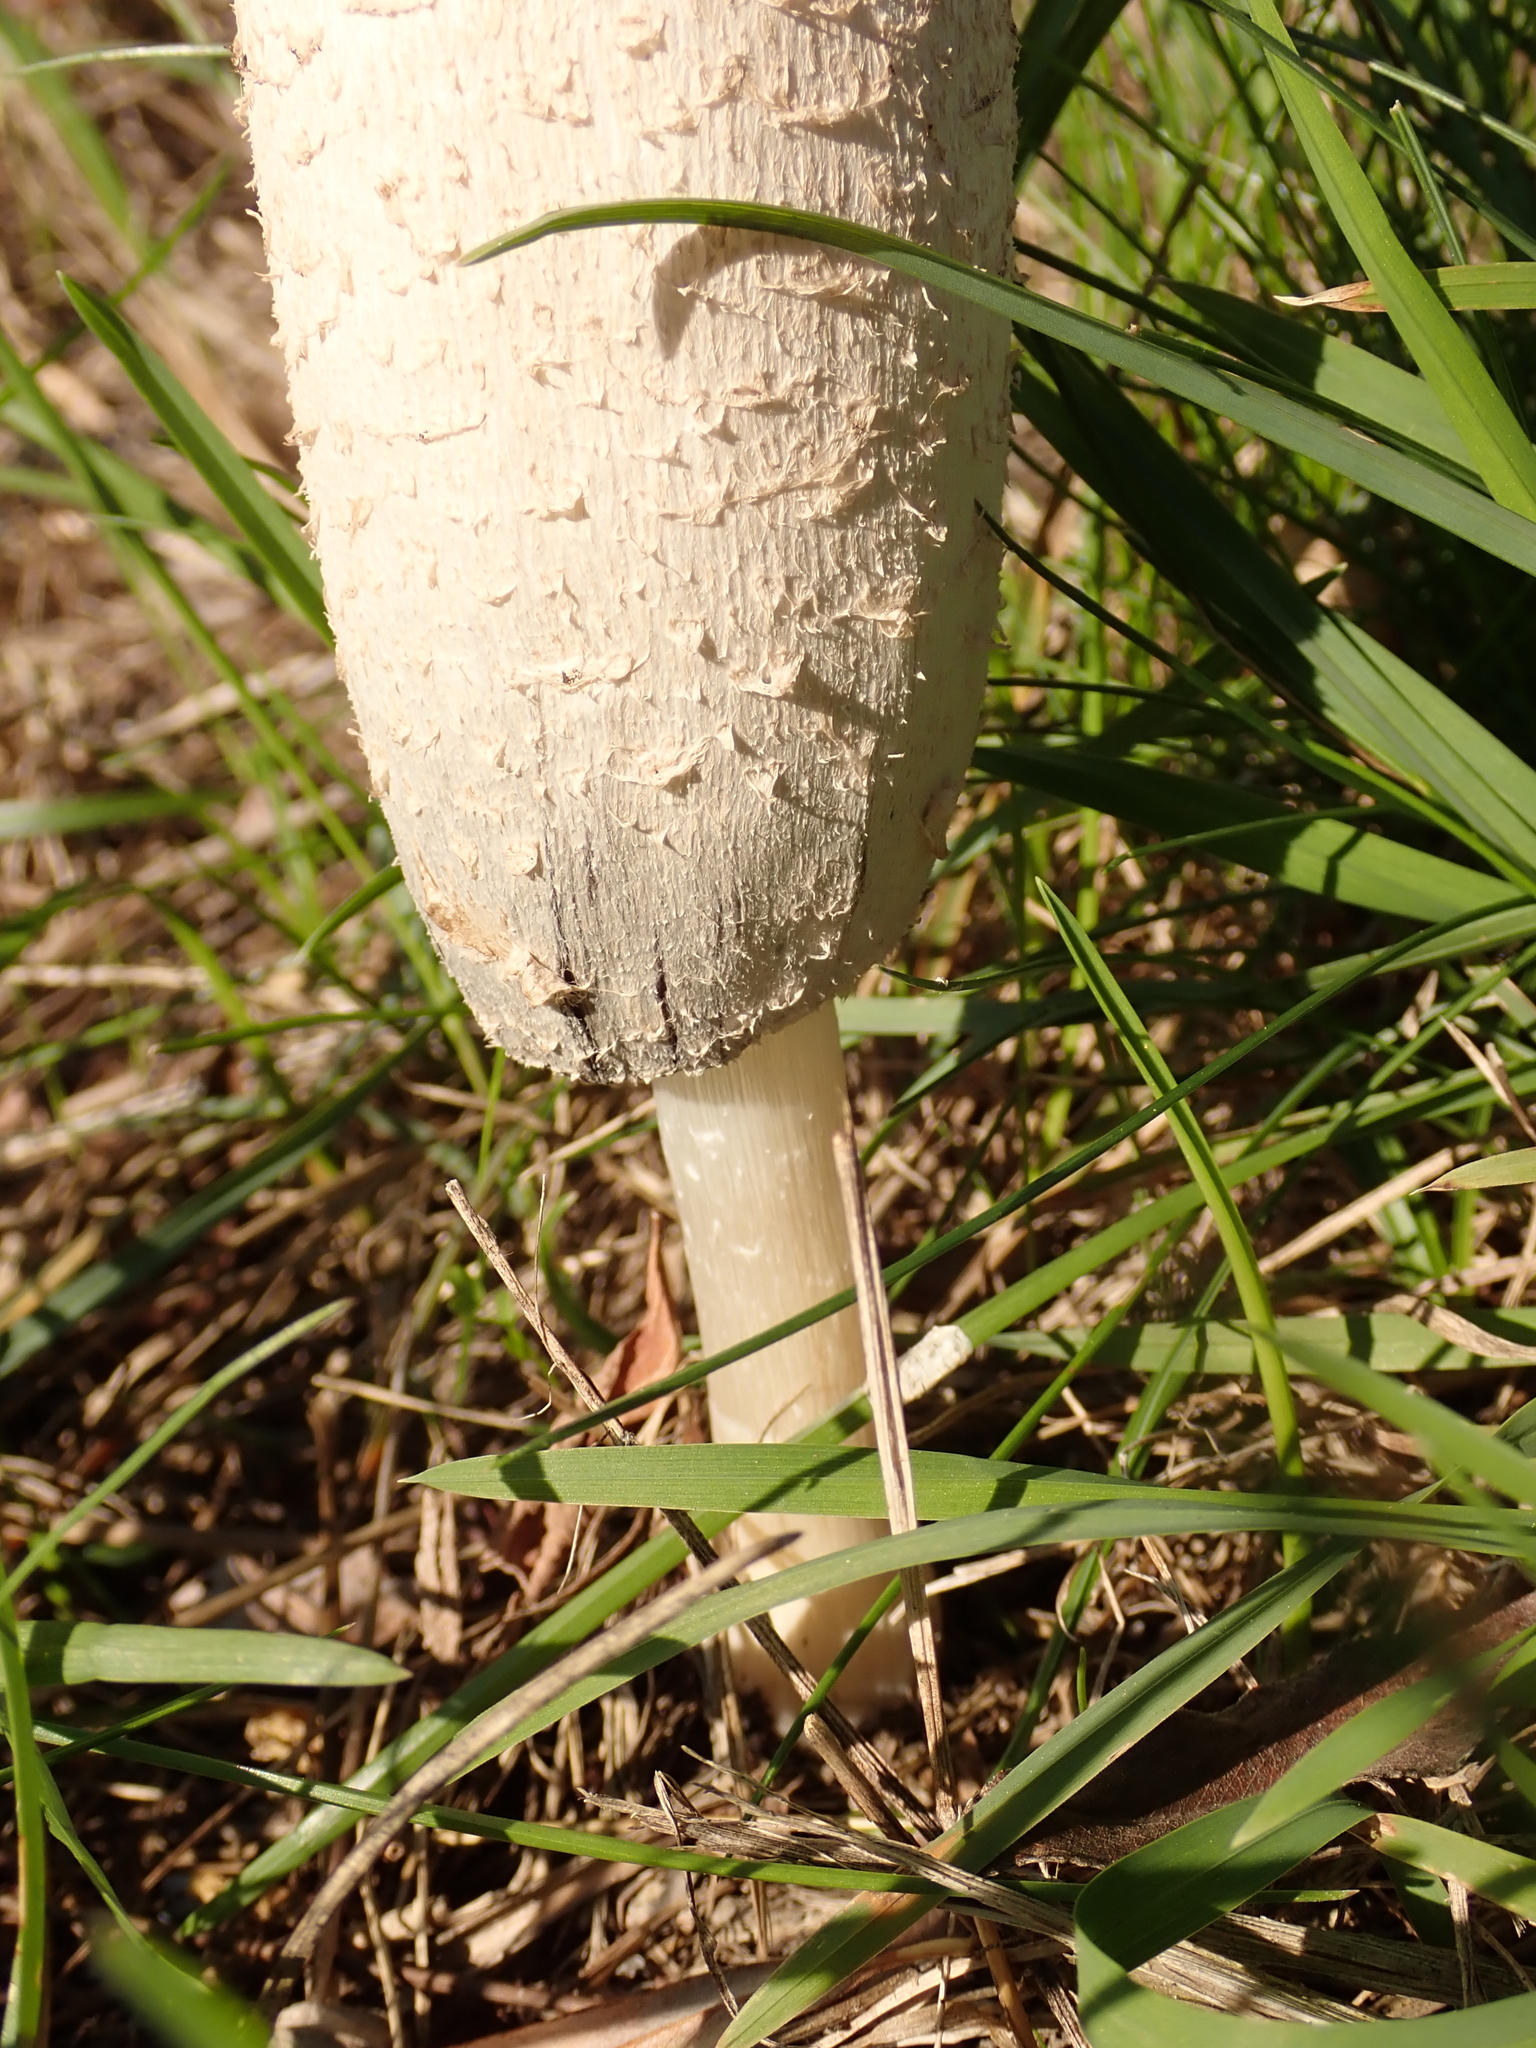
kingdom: Fungi
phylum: Basidiomycota
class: Agaricomycetes
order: Agaricales
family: Agaricaceae
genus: Coprinus
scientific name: Coprinus comatus
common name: Lawyer's wig
